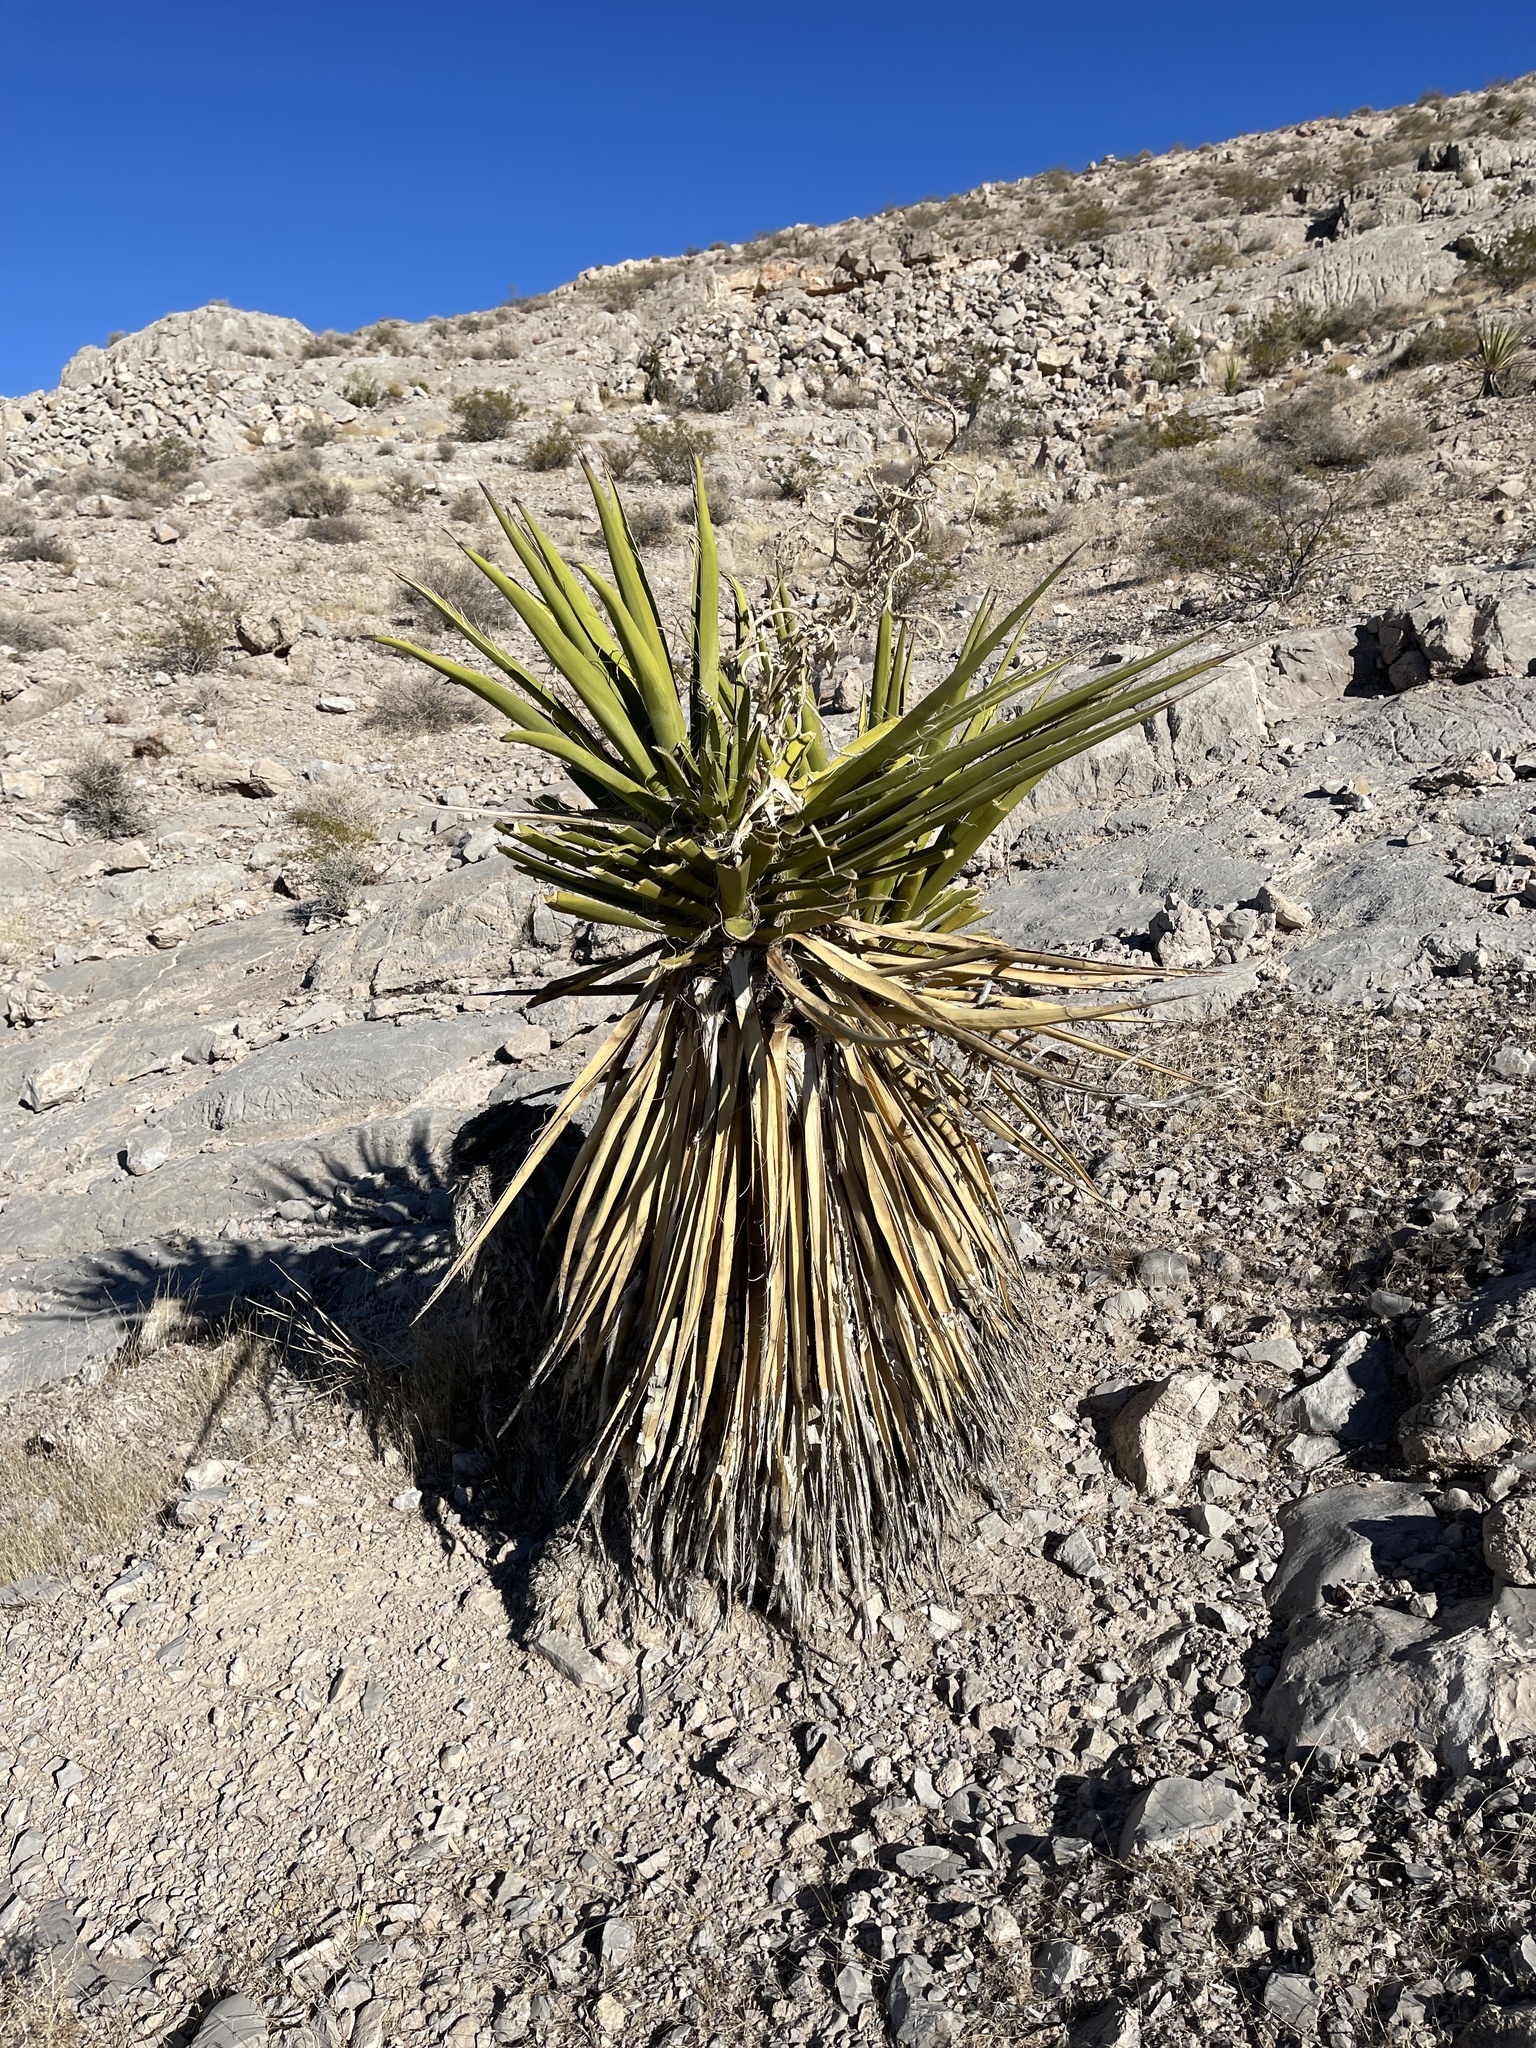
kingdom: Plantae
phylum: Tracheophyta
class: Liliopsida
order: Asparagales
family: Asparagaceae
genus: Yucca
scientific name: Yucca schidigera
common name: Mojave yucca
